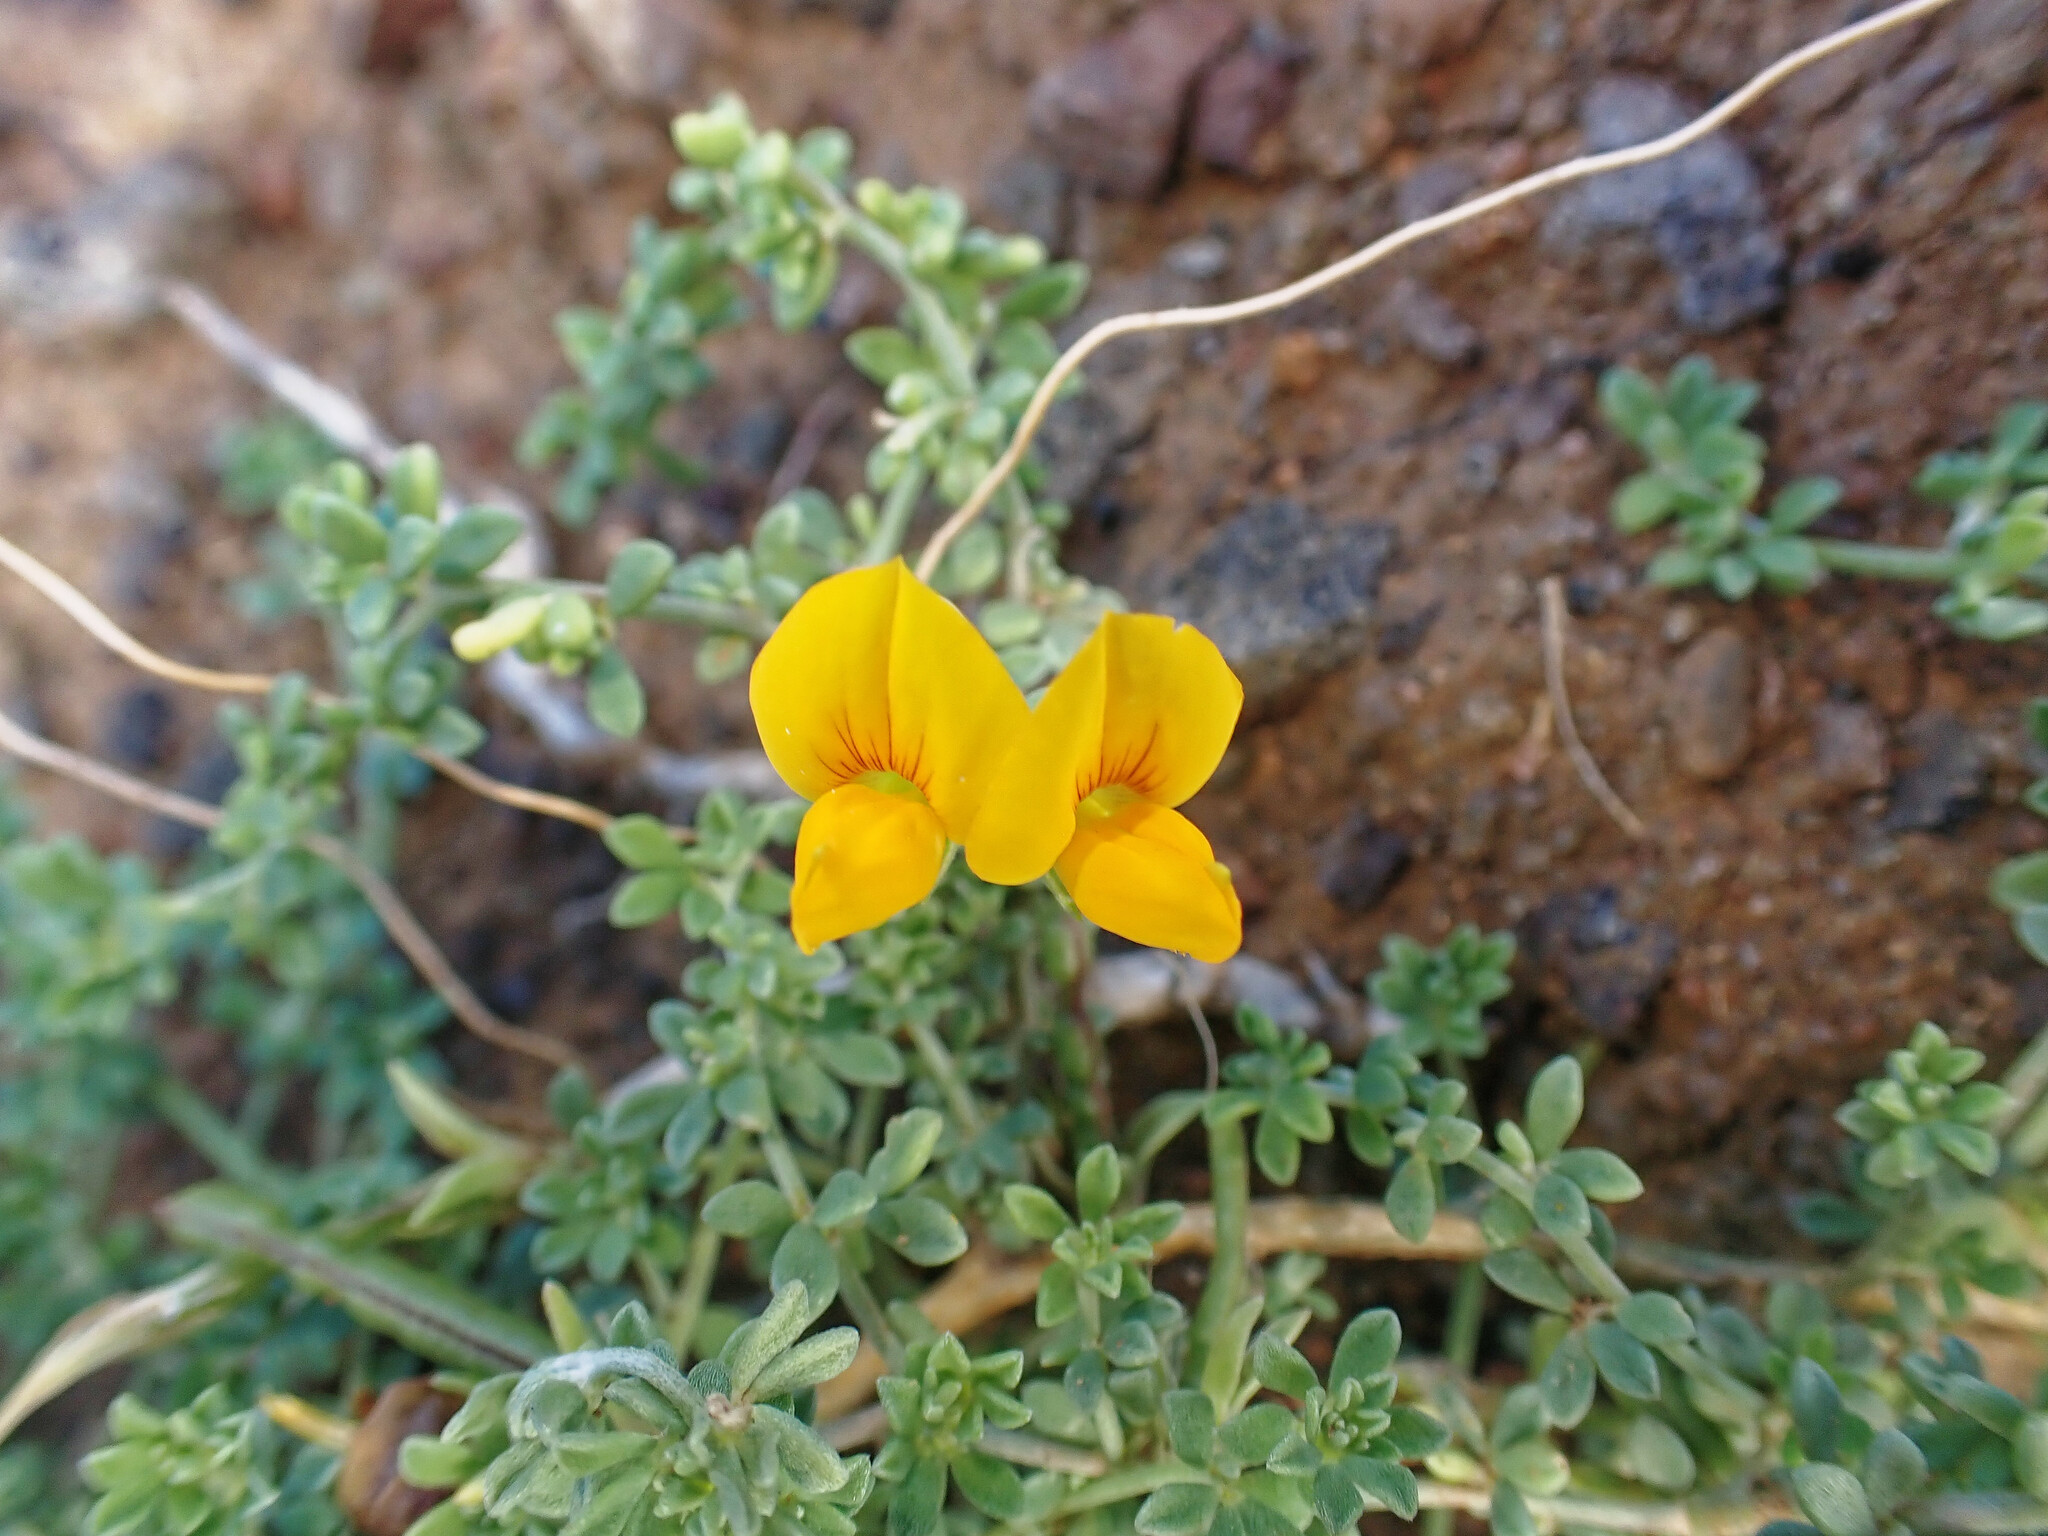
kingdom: Plantae
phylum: Tracheophyta
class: Magnoliopsida
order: Fabales
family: Fabaceae
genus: Lotus
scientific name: Lotus glaucus
